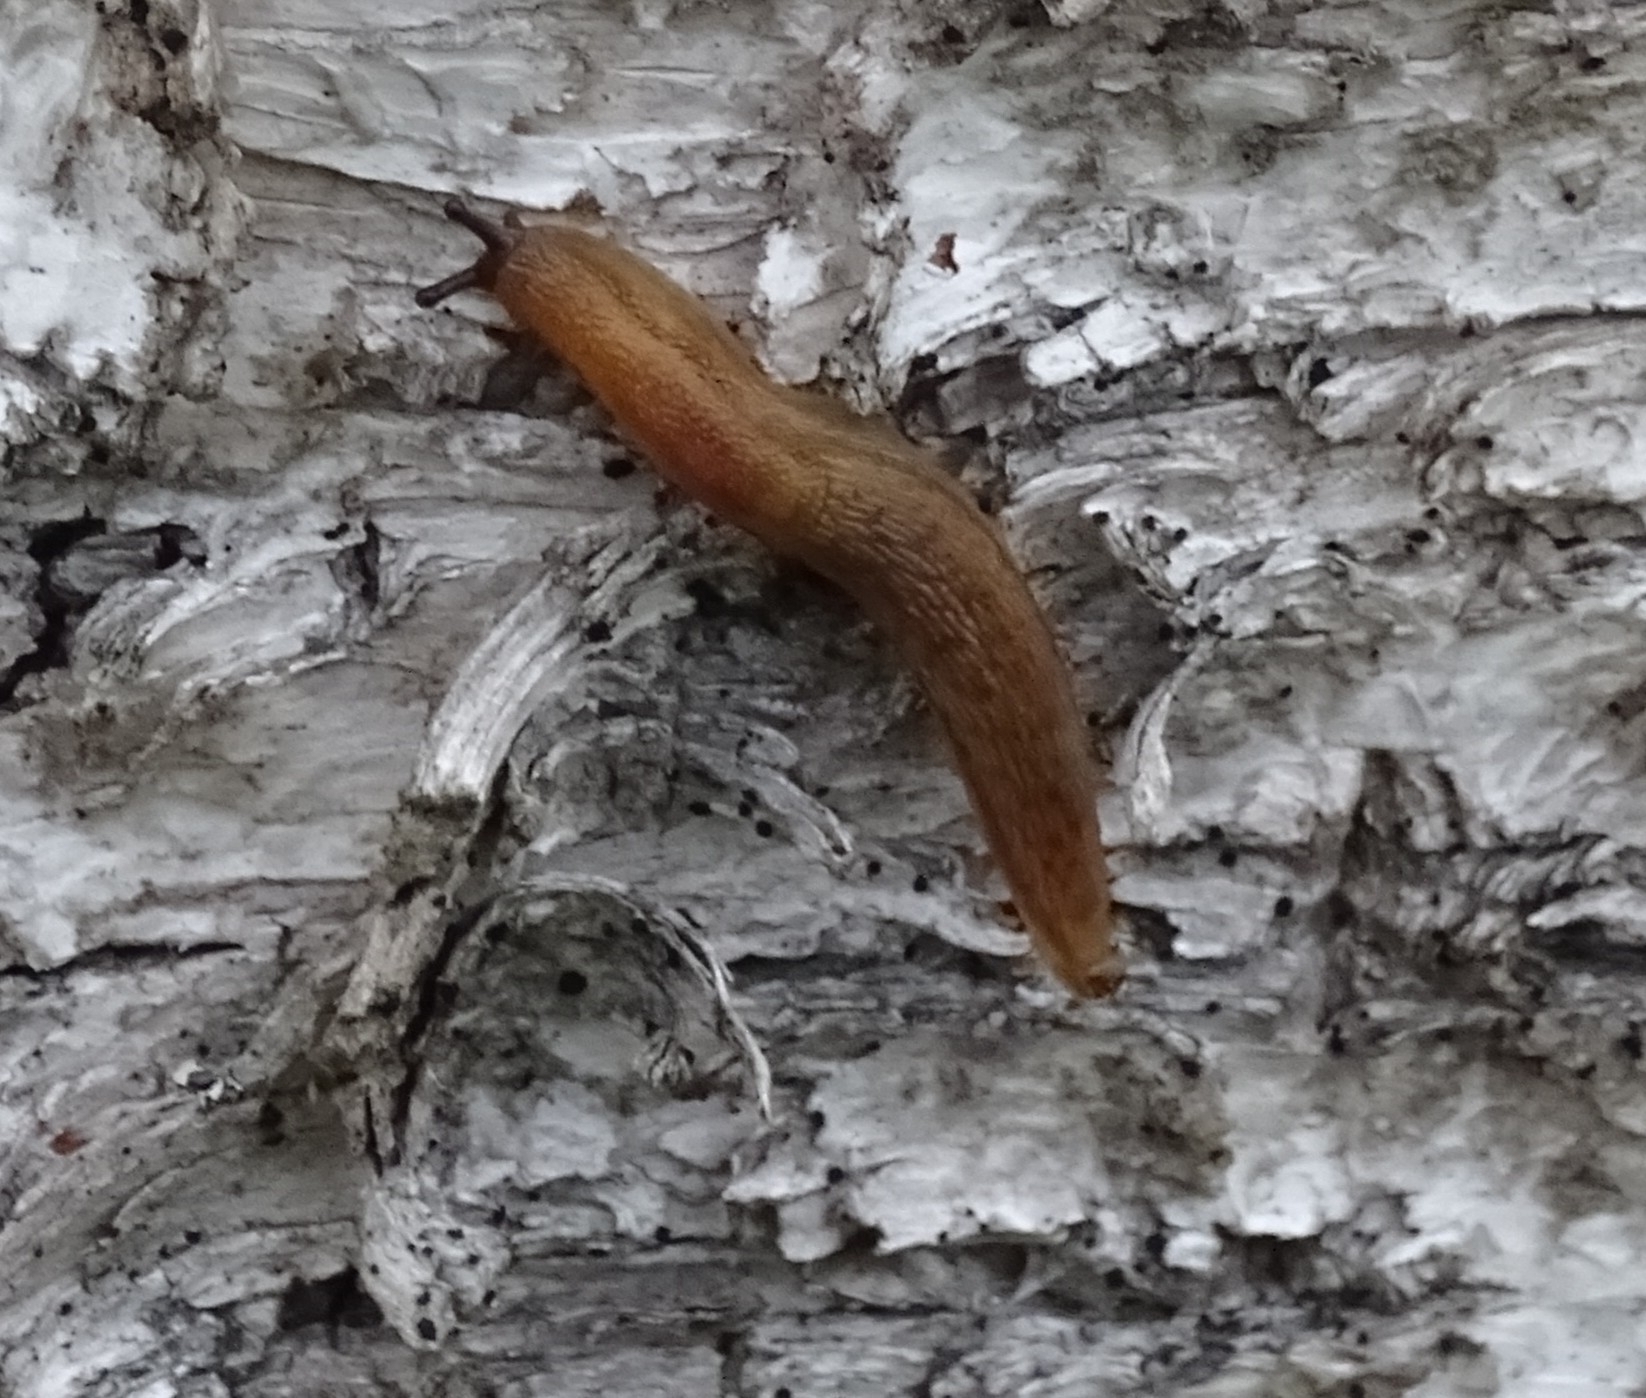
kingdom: Animalia
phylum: Mollusca
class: Gastropoda
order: Stylommatophora
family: Arionidae
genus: Arion
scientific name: Arion fuscus
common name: Northern dusky slug
